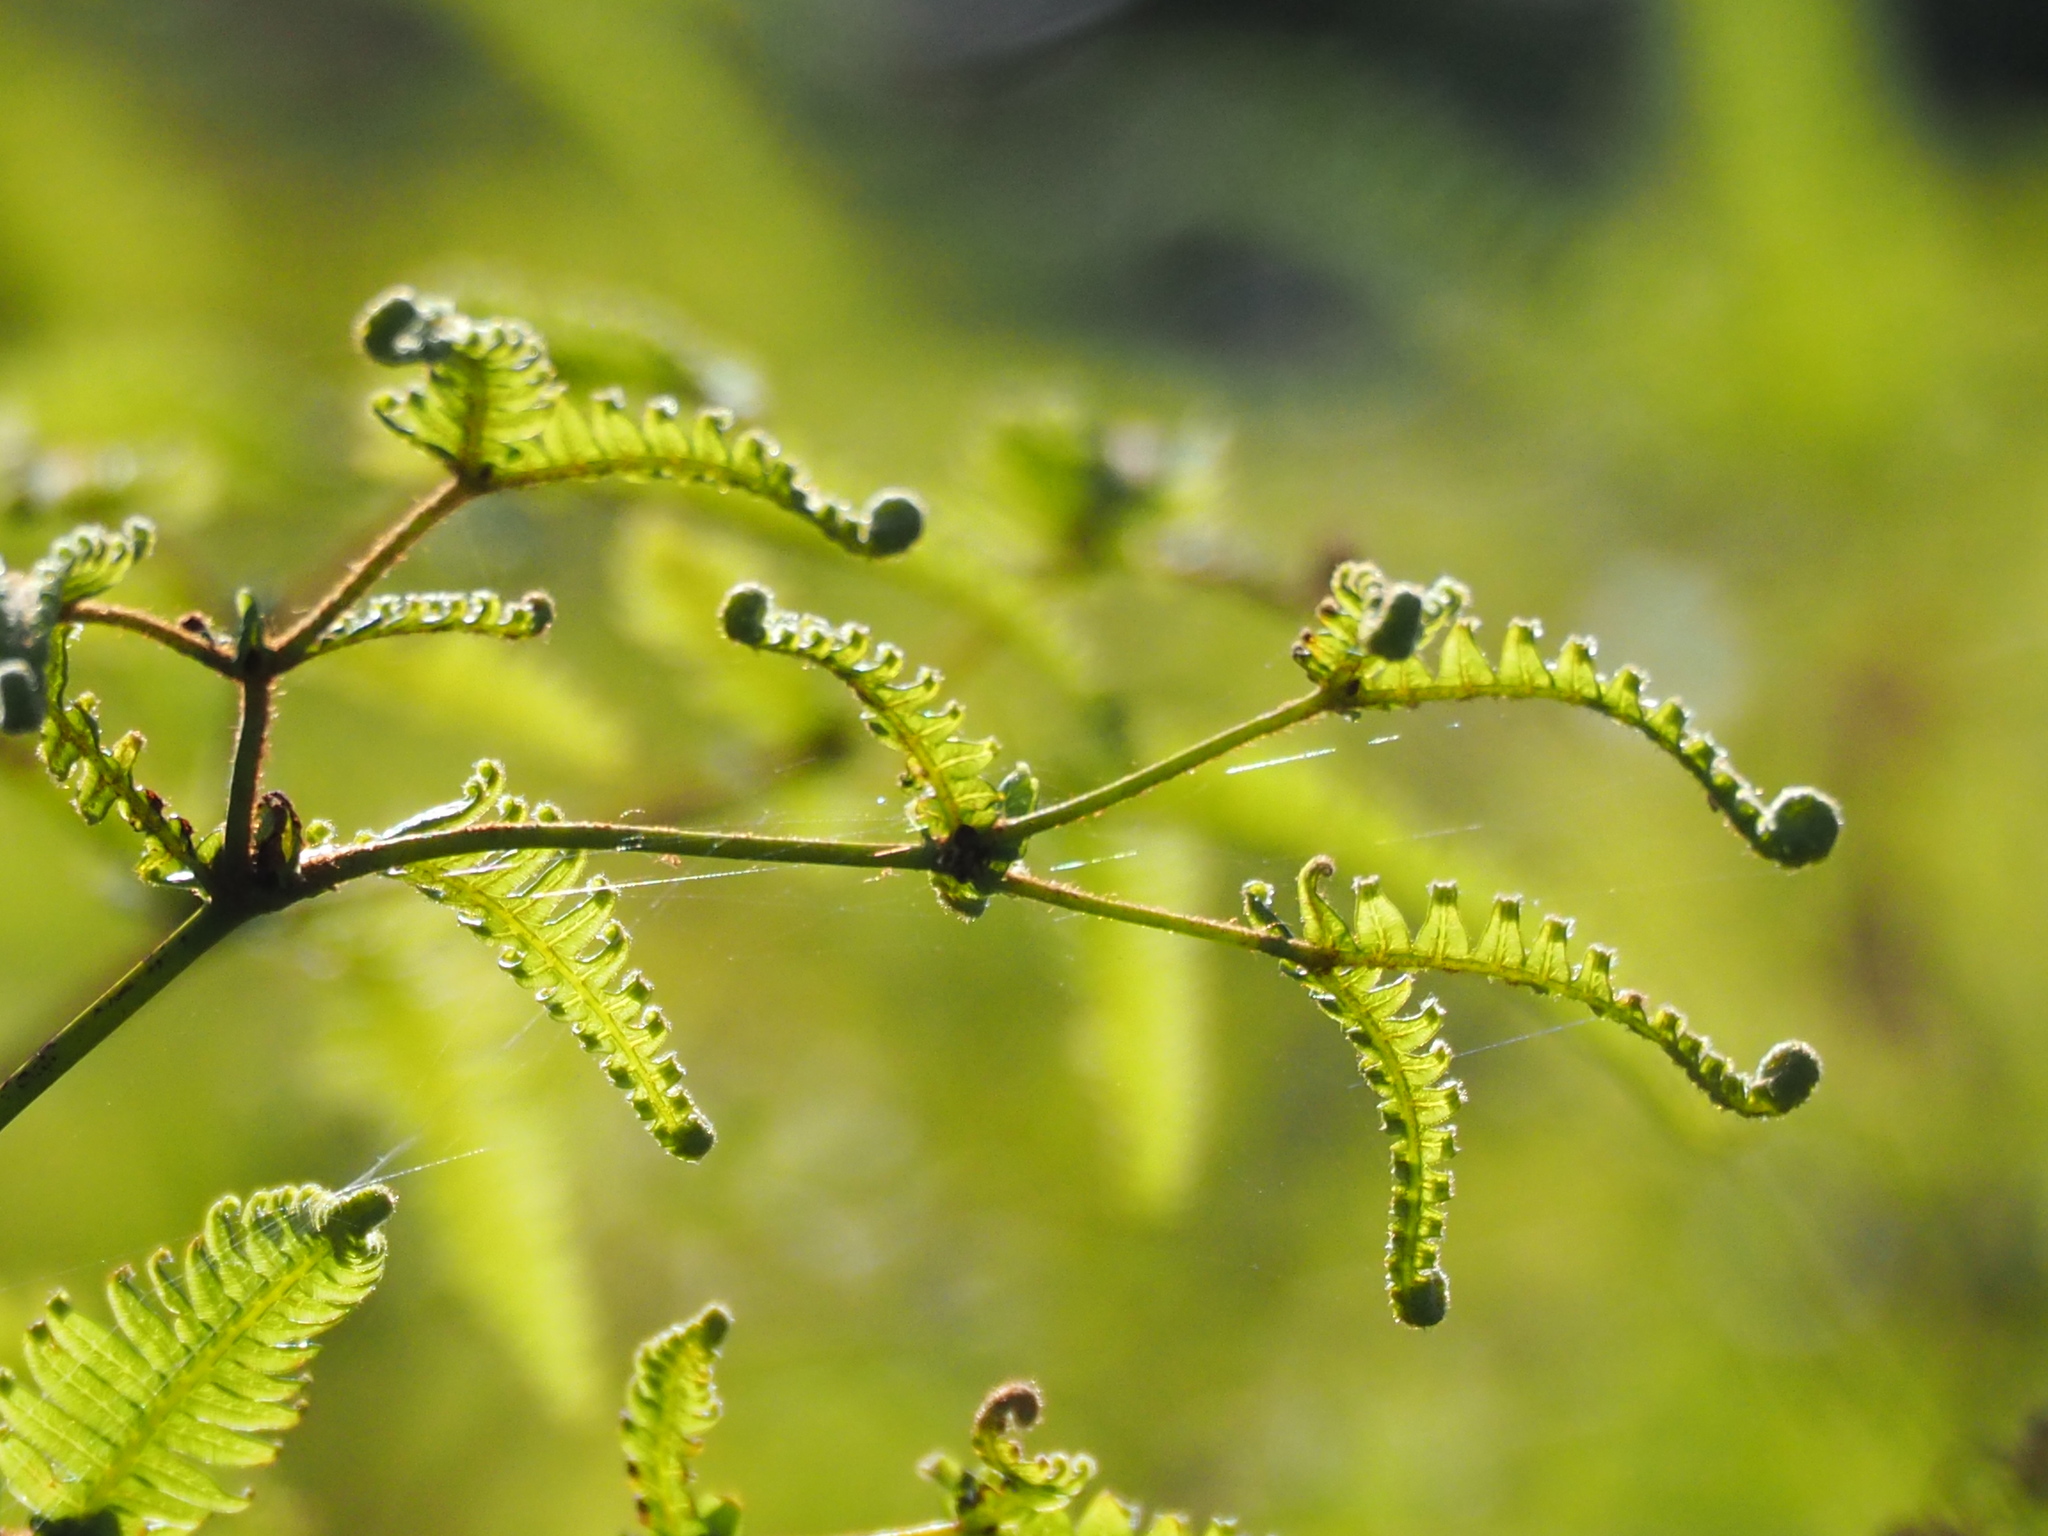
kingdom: Plantae
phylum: Tracheophyta
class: Polypodiopsida
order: Gleicheniales
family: Gleicheniaceae
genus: Dicranopteris
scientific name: Dicranopteris linearis
